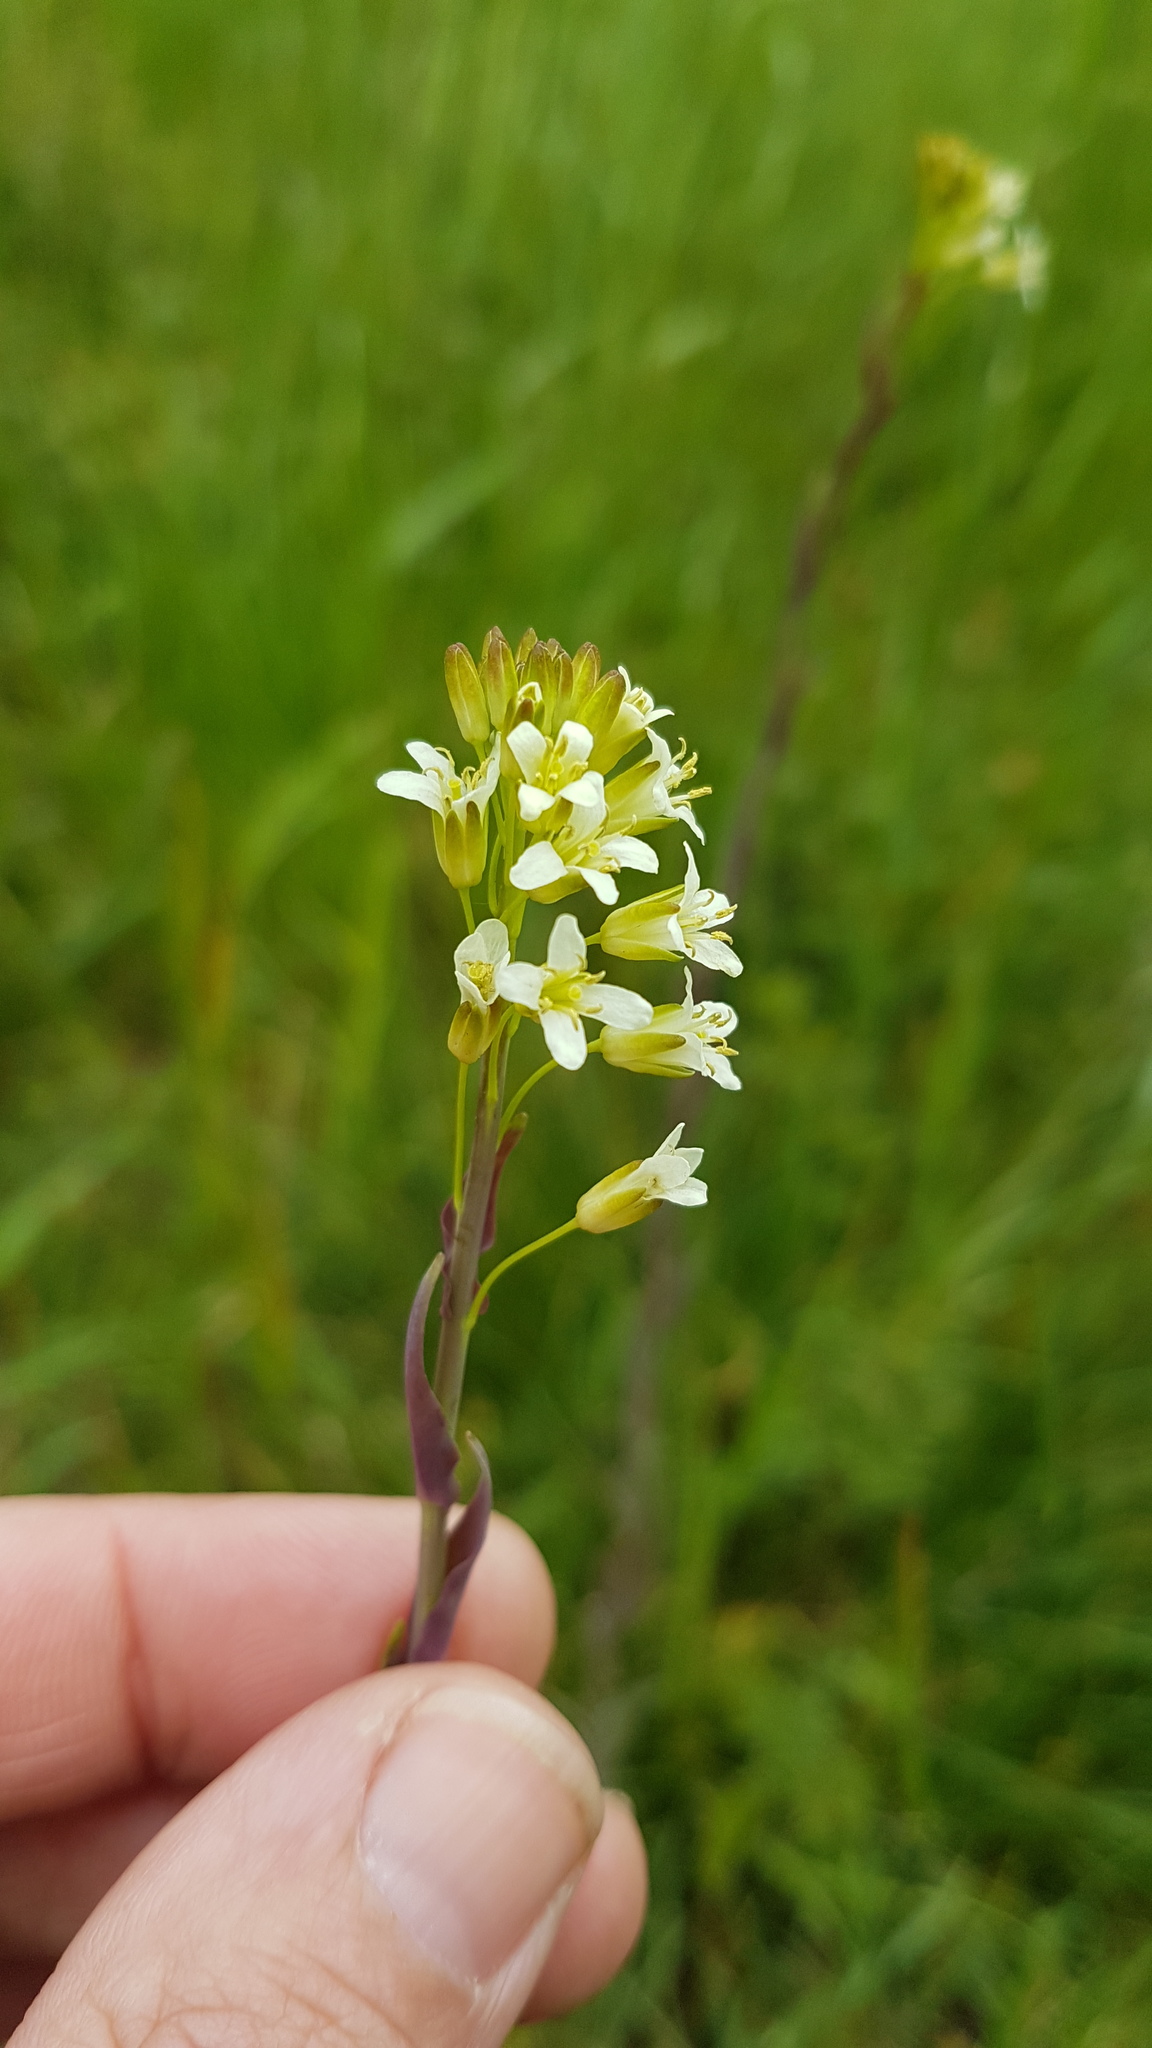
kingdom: Plantae
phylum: Tracheophyta
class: Magnoliopsida
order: Brassicales
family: Brassicaceae
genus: Turritis
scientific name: Turritis glabra
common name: Tower rockcress
